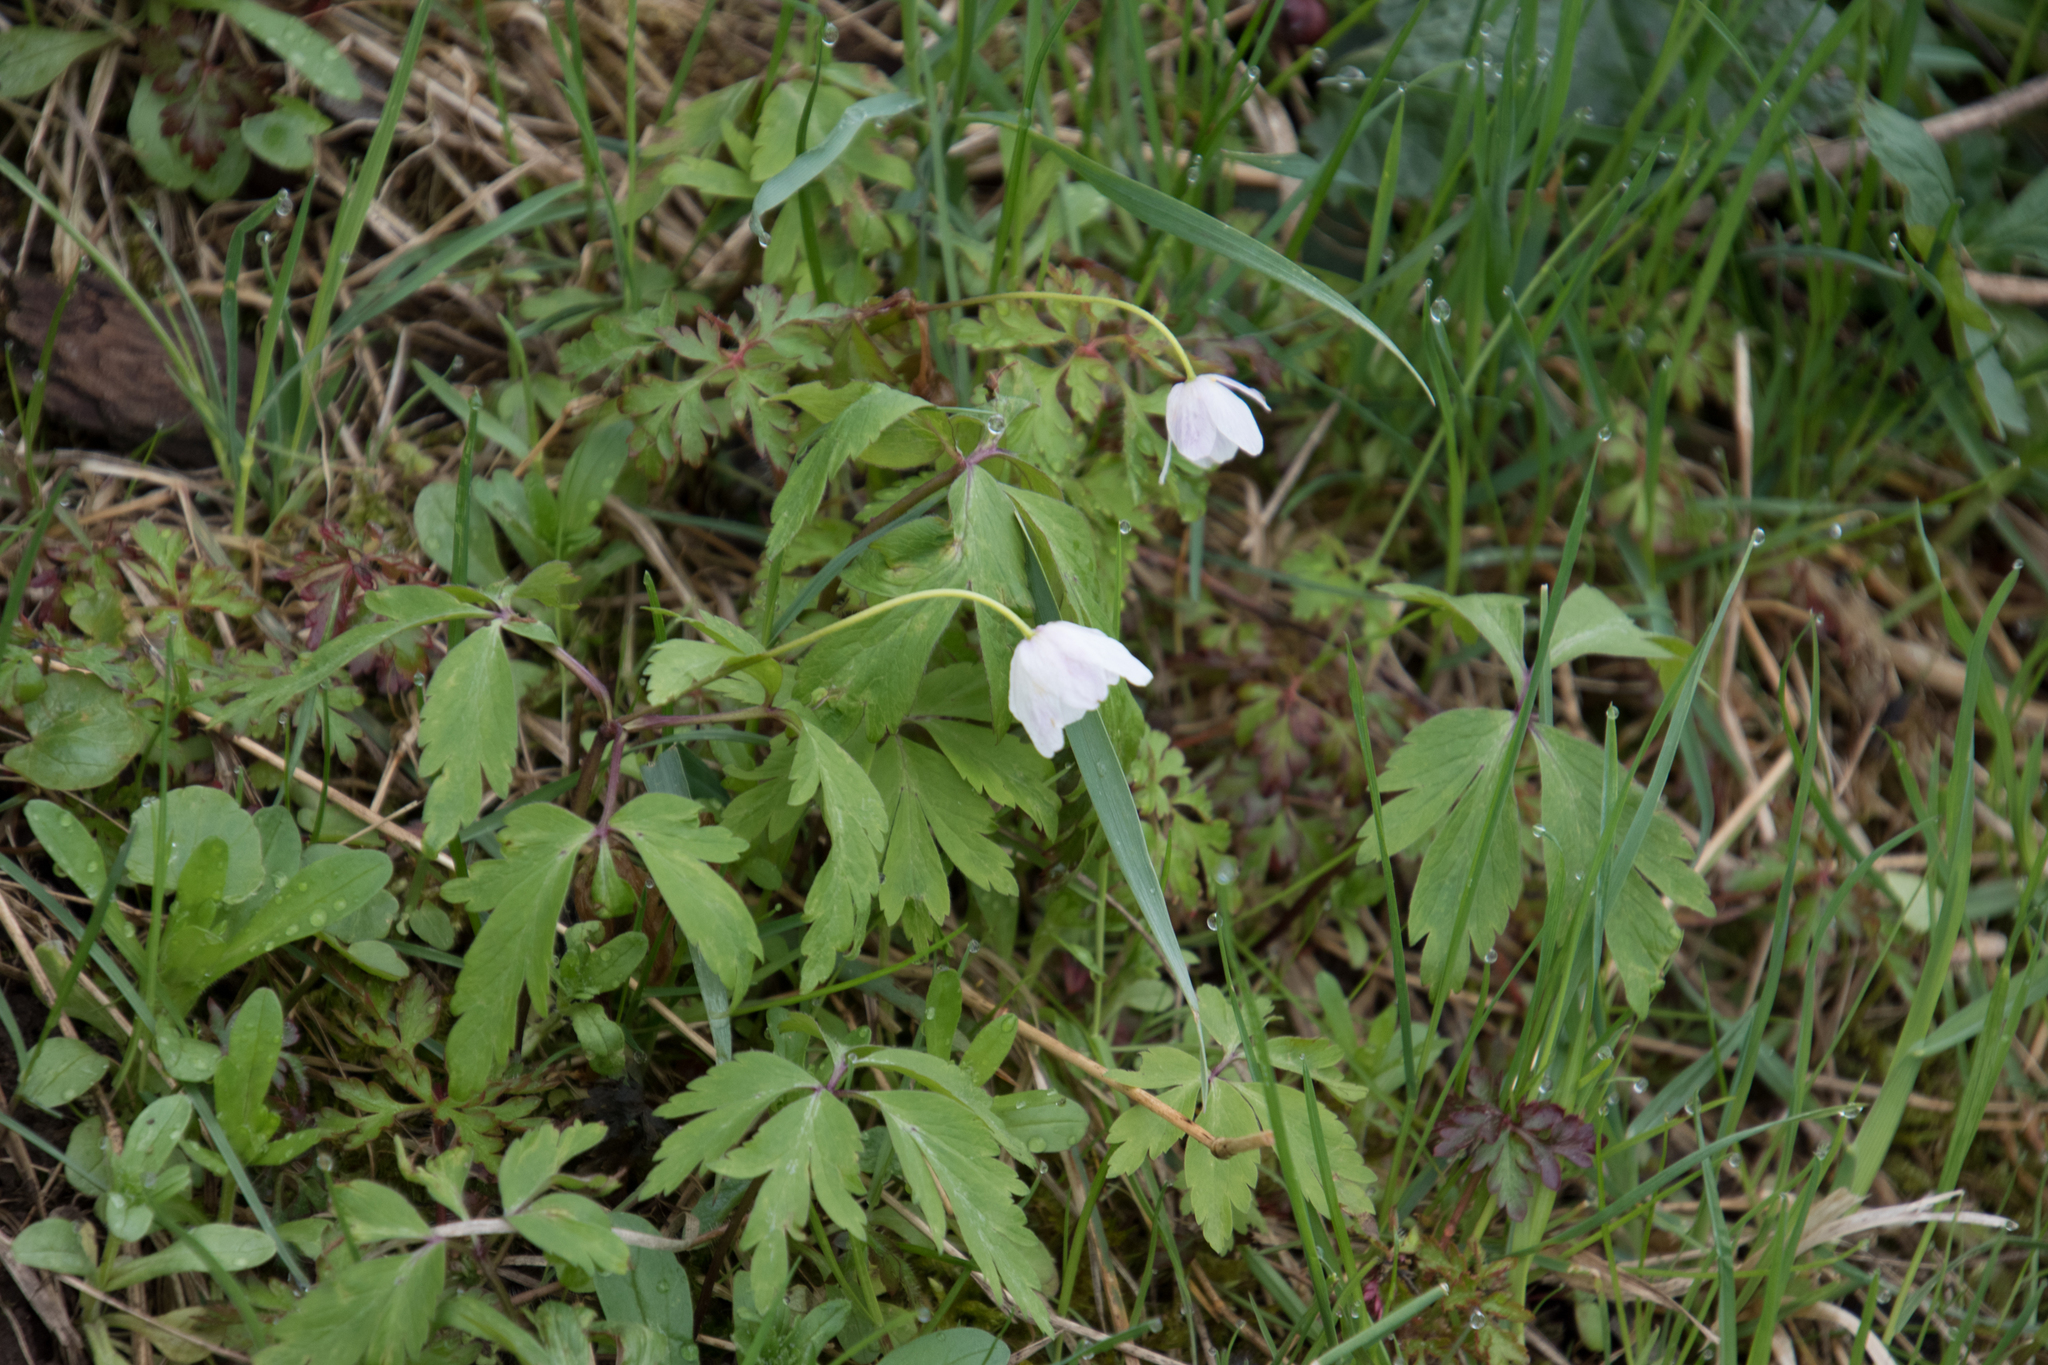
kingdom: Plantae
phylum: Tracheophyta
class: Magnoliopsida
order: Ranunculales
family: Ranunculaceae
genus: Anemone
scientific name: Anemone nemorosa
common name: Wood anemone
